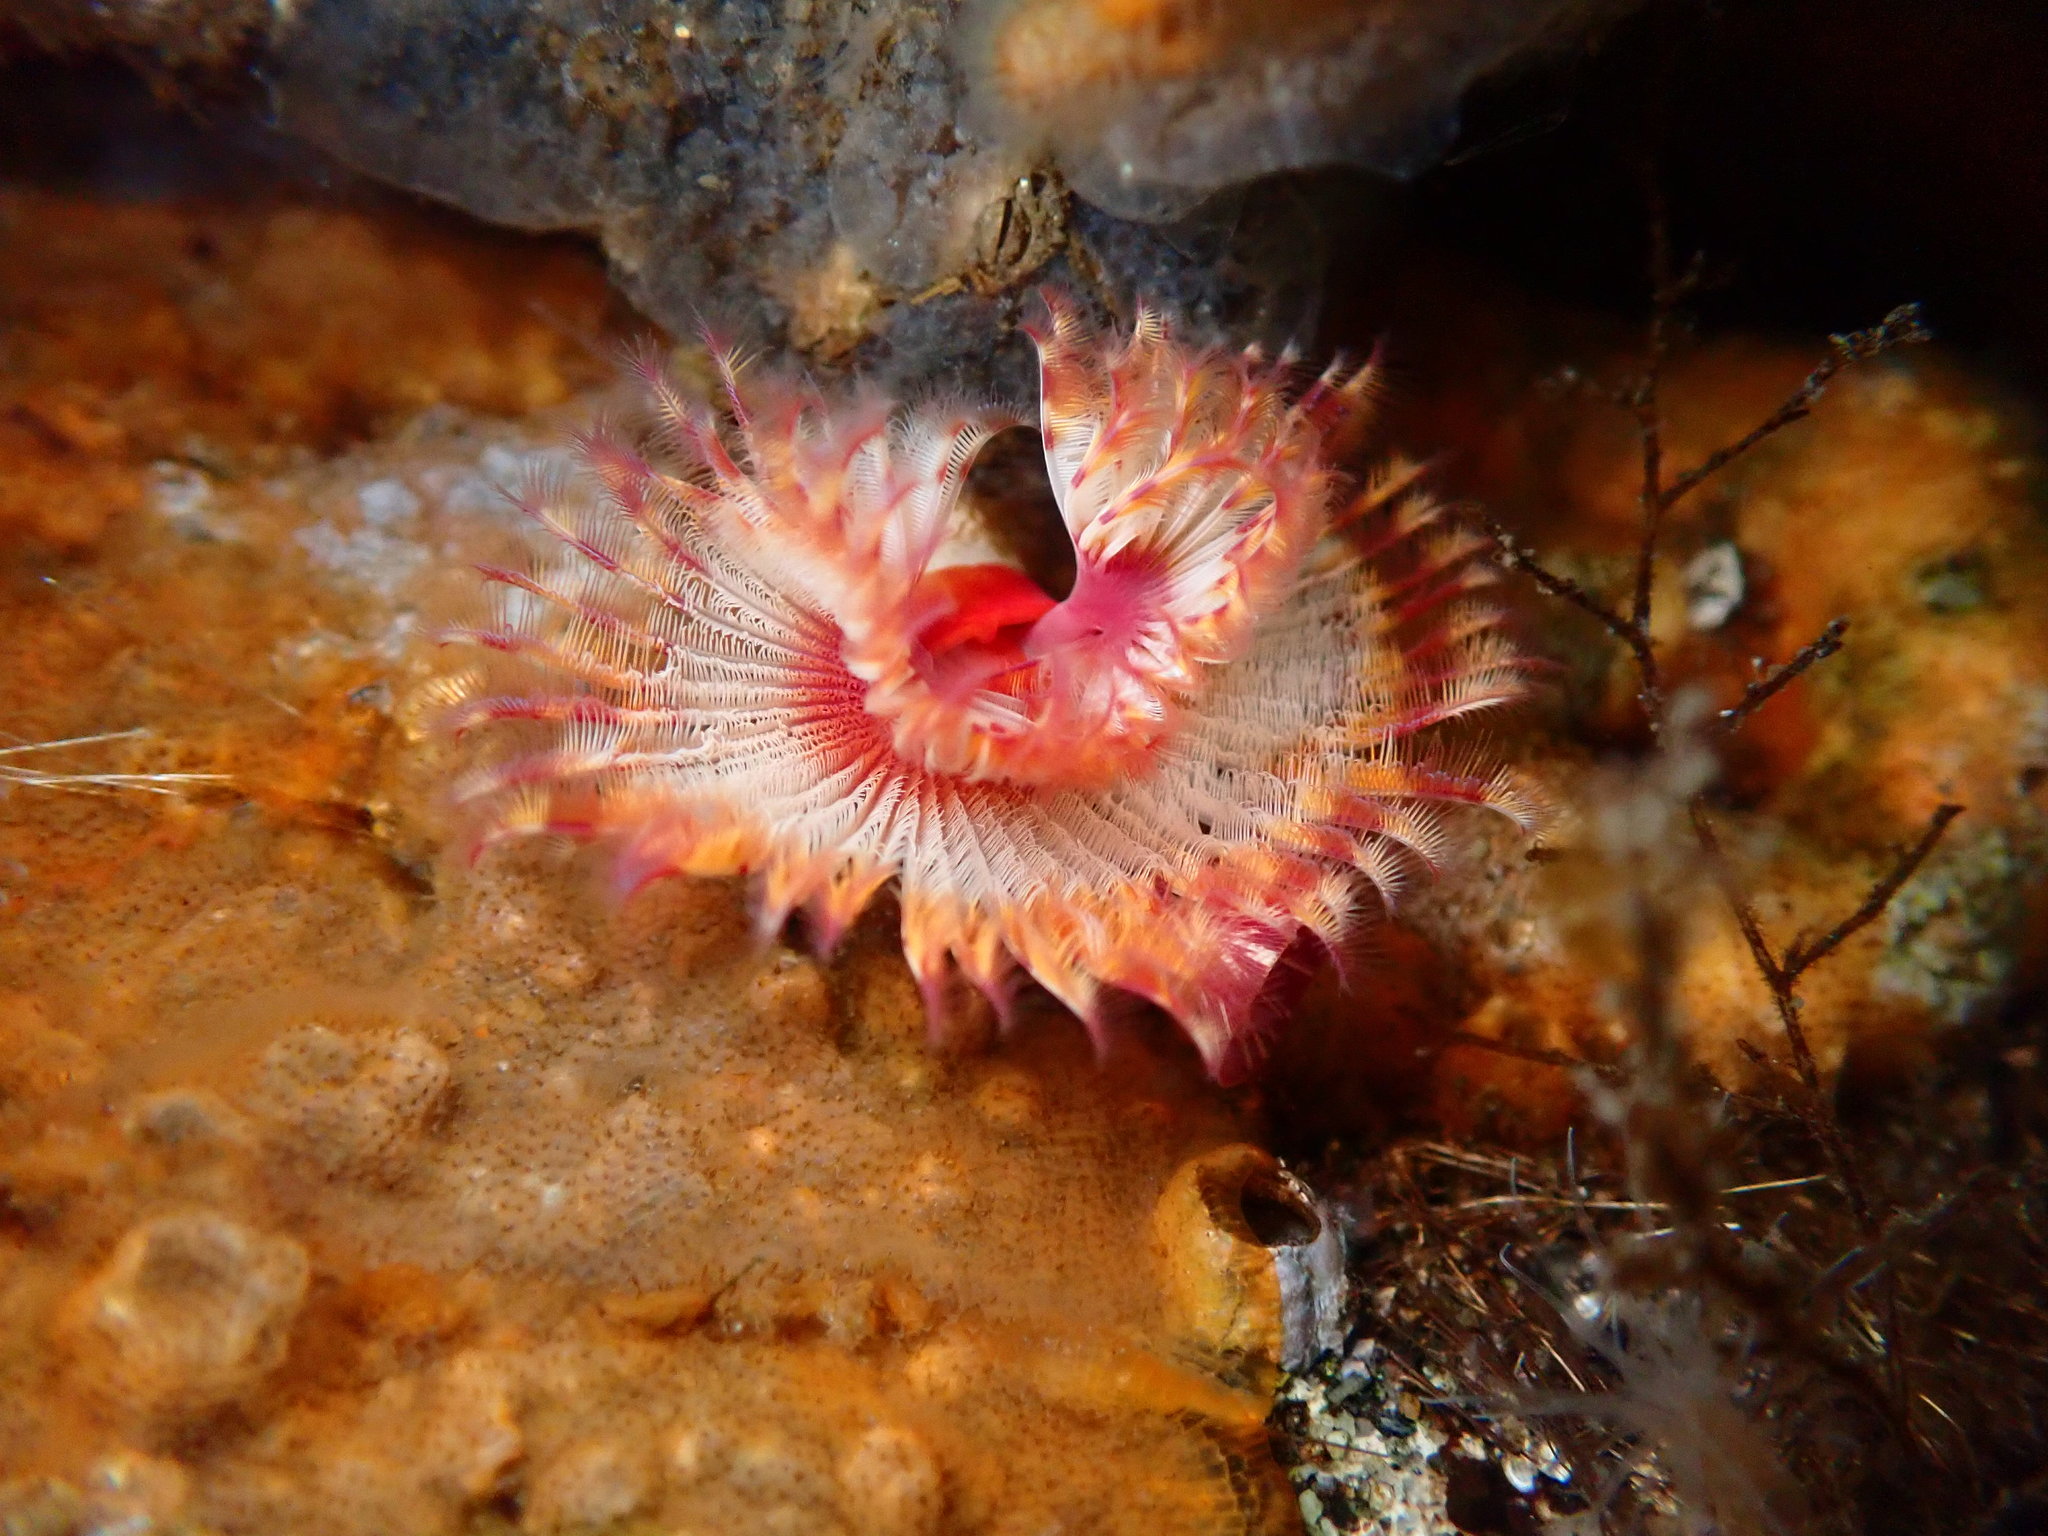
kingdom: Animalia
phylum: Annelida
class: Polychaeta
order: Sabellida
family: Serpulidae
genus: Serpula
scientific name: Serpula columbiana
